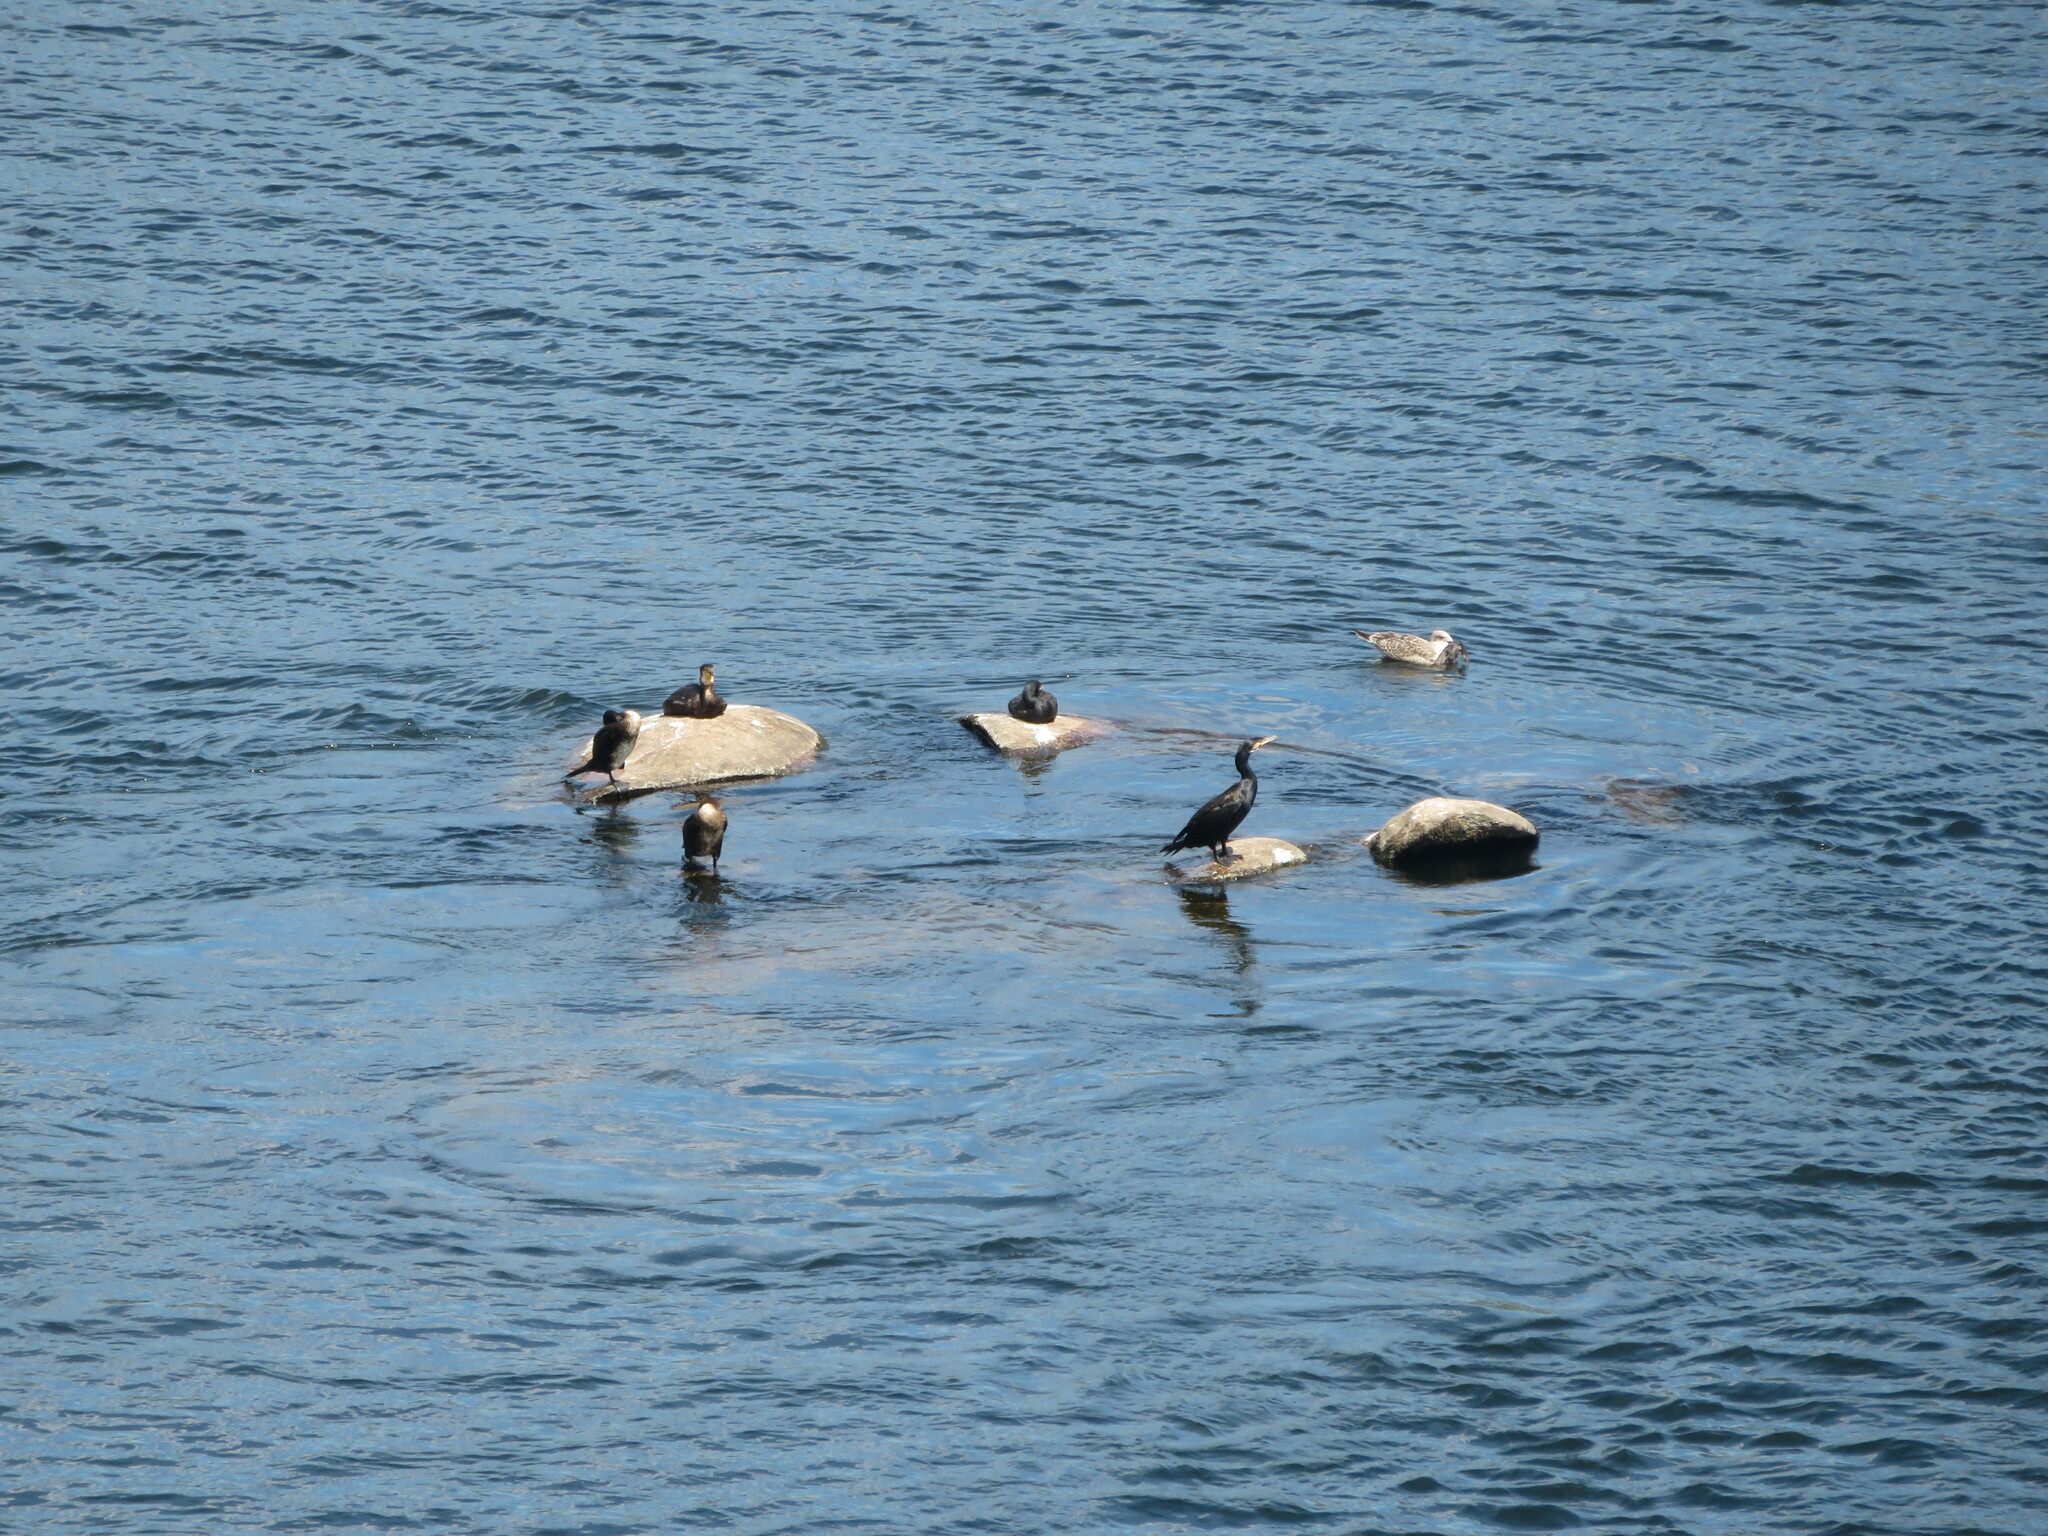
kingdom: Animalia
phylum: Chordata
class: Aves
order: Suliformes
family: Phalacrocoracidae
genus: Phalacrocorax
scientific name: Phalacrocorax carbo
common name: Great cormorant
